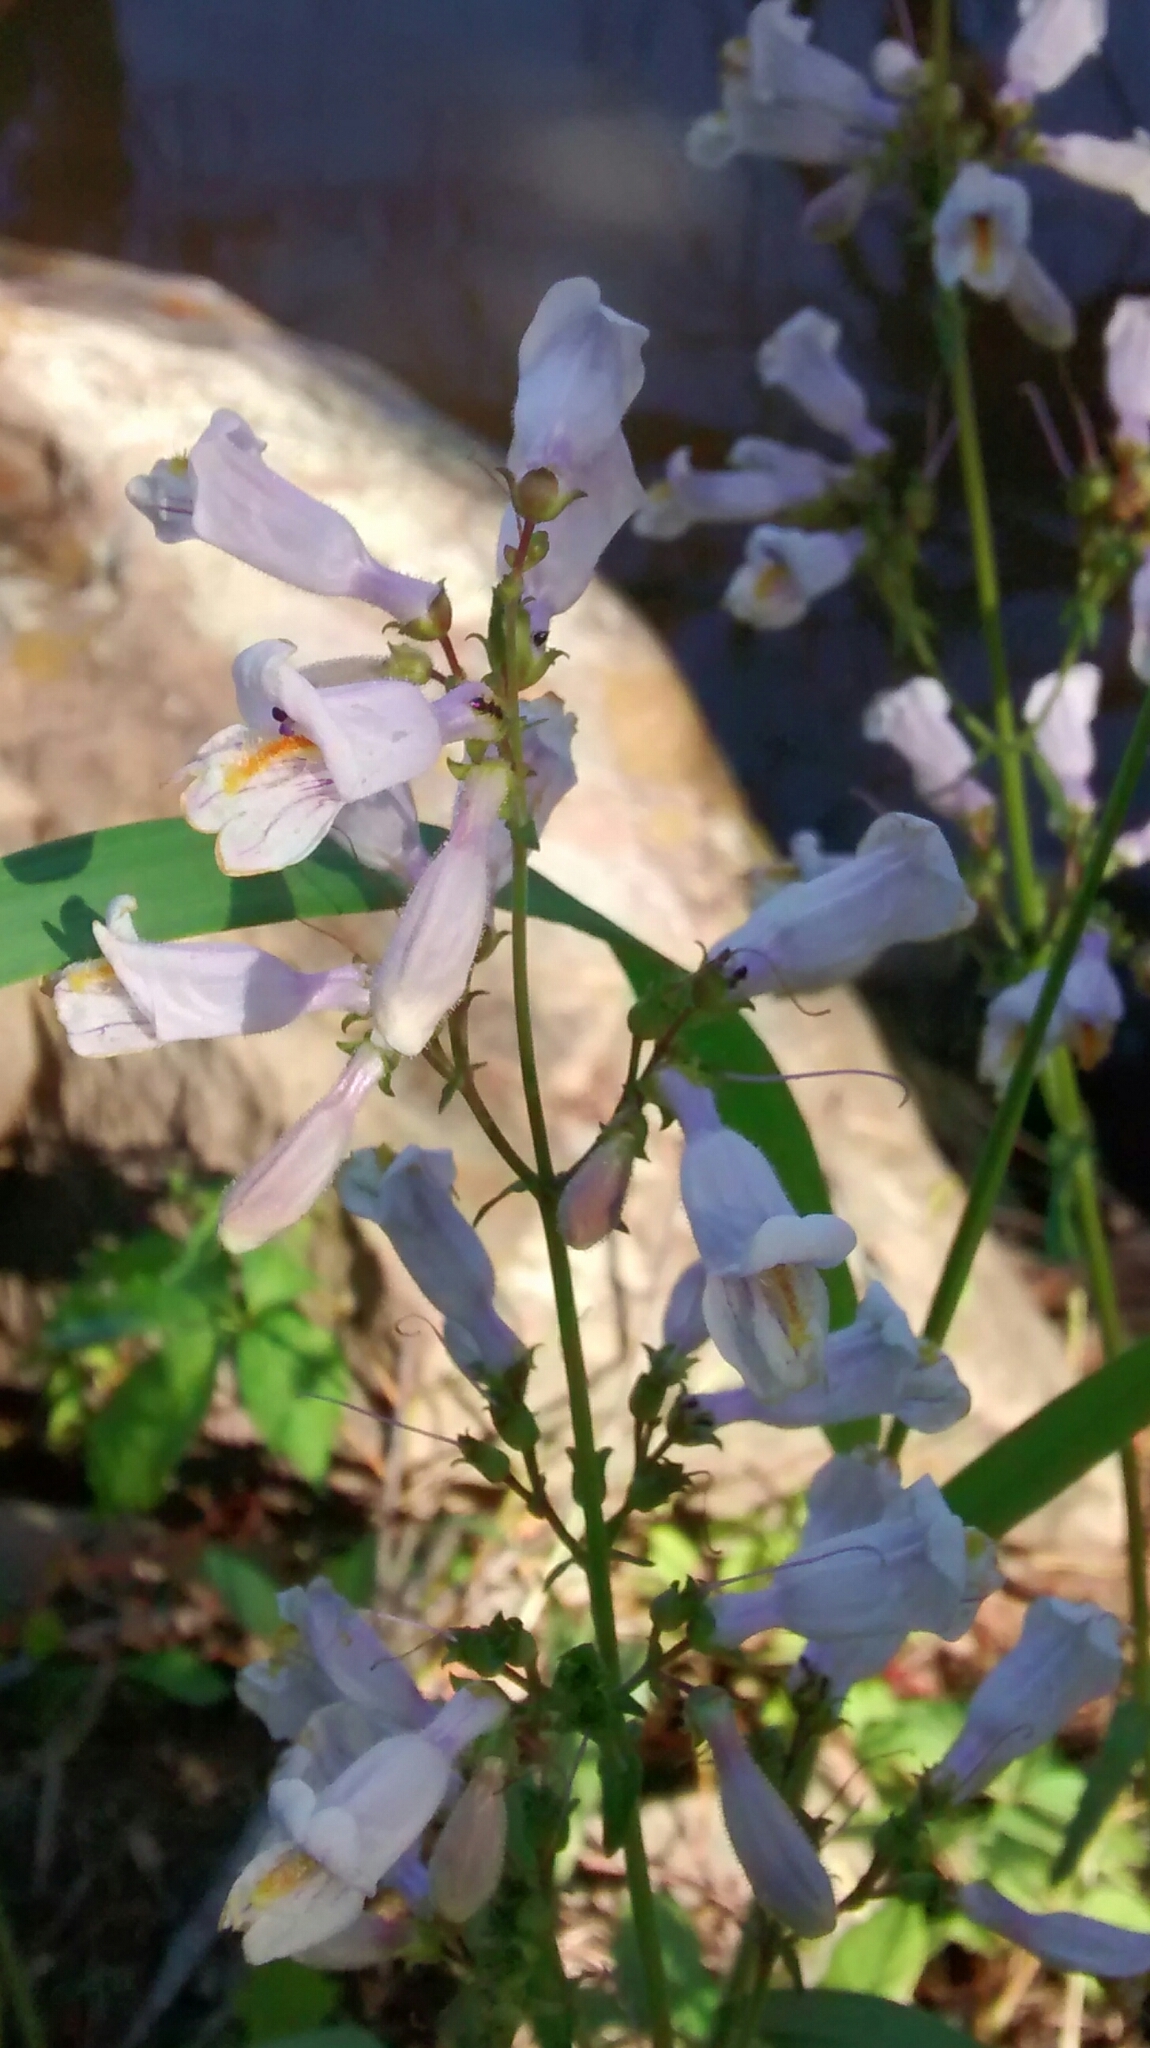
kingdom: Plantae
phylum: Tracheophyta
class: Magnoliopsida
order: Lamiales
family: Plantaginaceae
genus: Penstemon
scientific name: Penstemon laxiflorus
